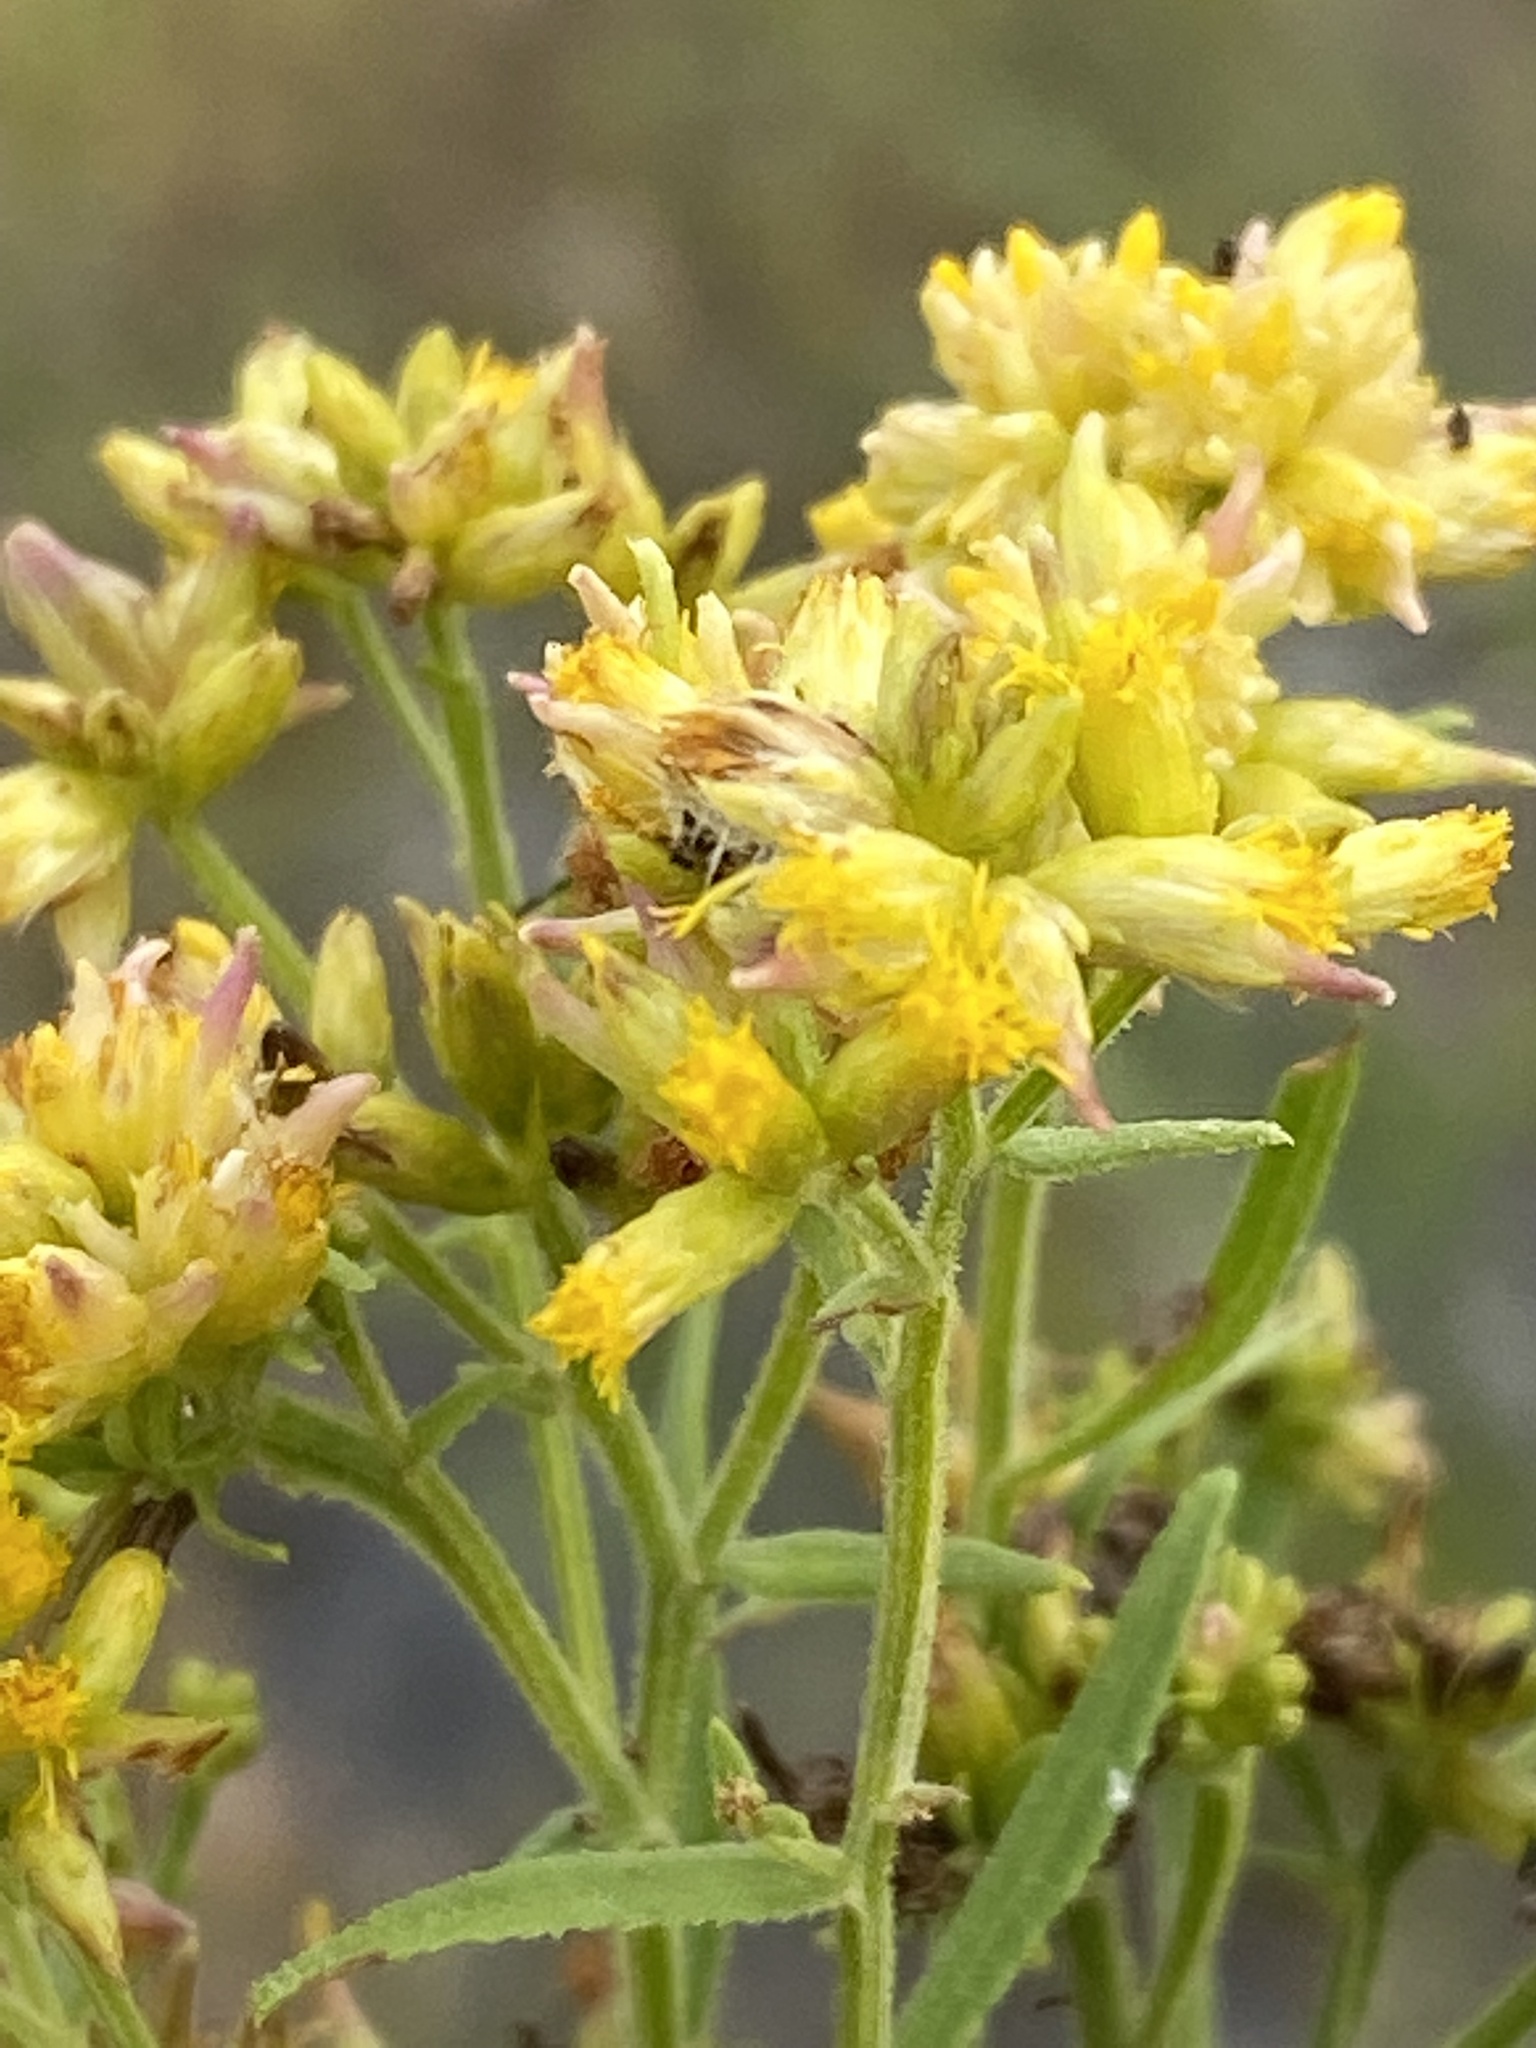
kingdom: Plantae
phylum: Tracheophyta
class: Magnoliopsida
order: Asterales
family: Asteraceae
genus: Euthamia
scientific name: Euthamia graminifolia
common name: Common goldentop
